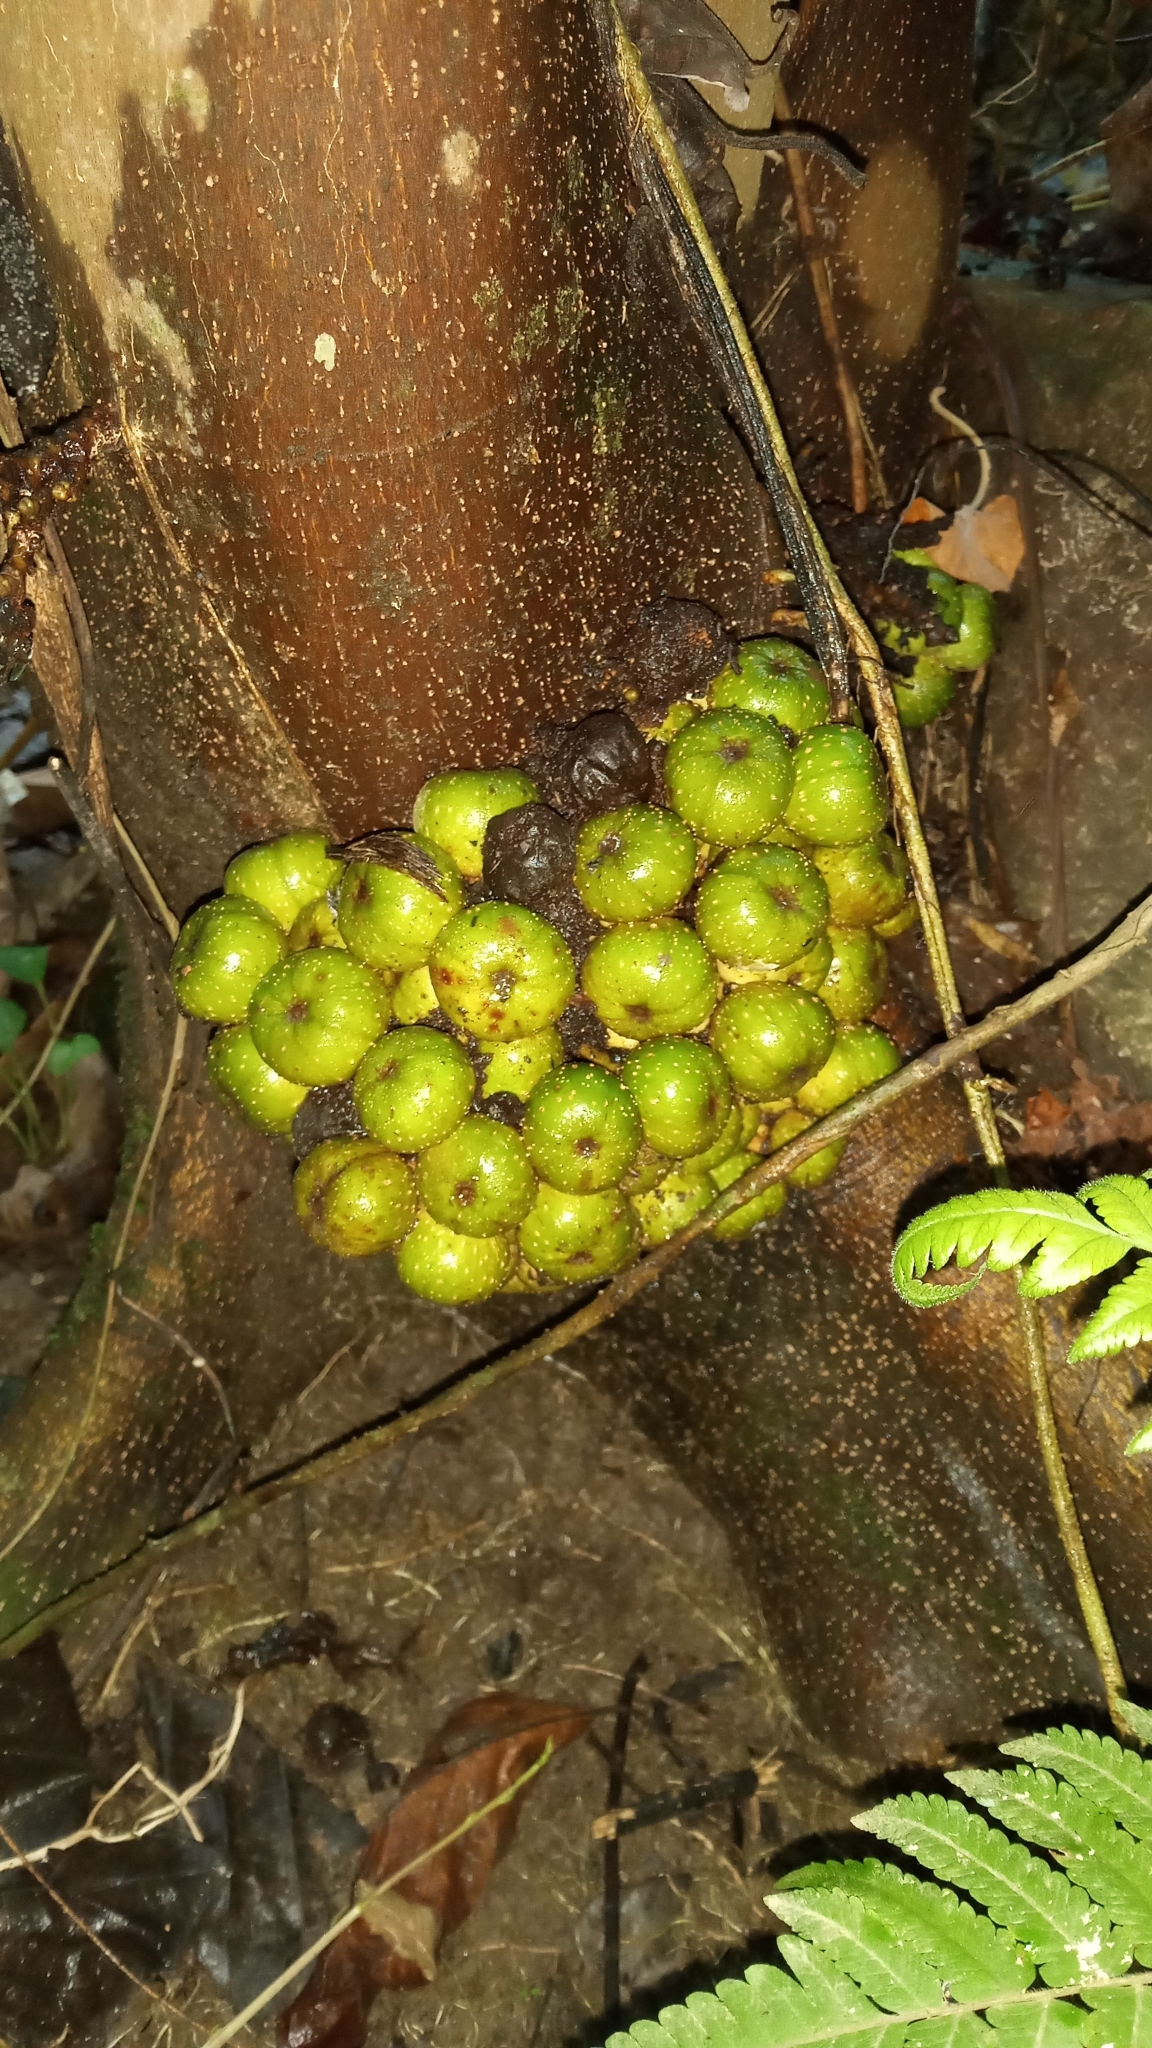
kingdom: Plantae
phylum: Tracheophyta
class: Magnoliopsida
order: Rosales
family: Moraceae
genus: Ficus
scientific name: Ficus fistulosa
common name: Figs
